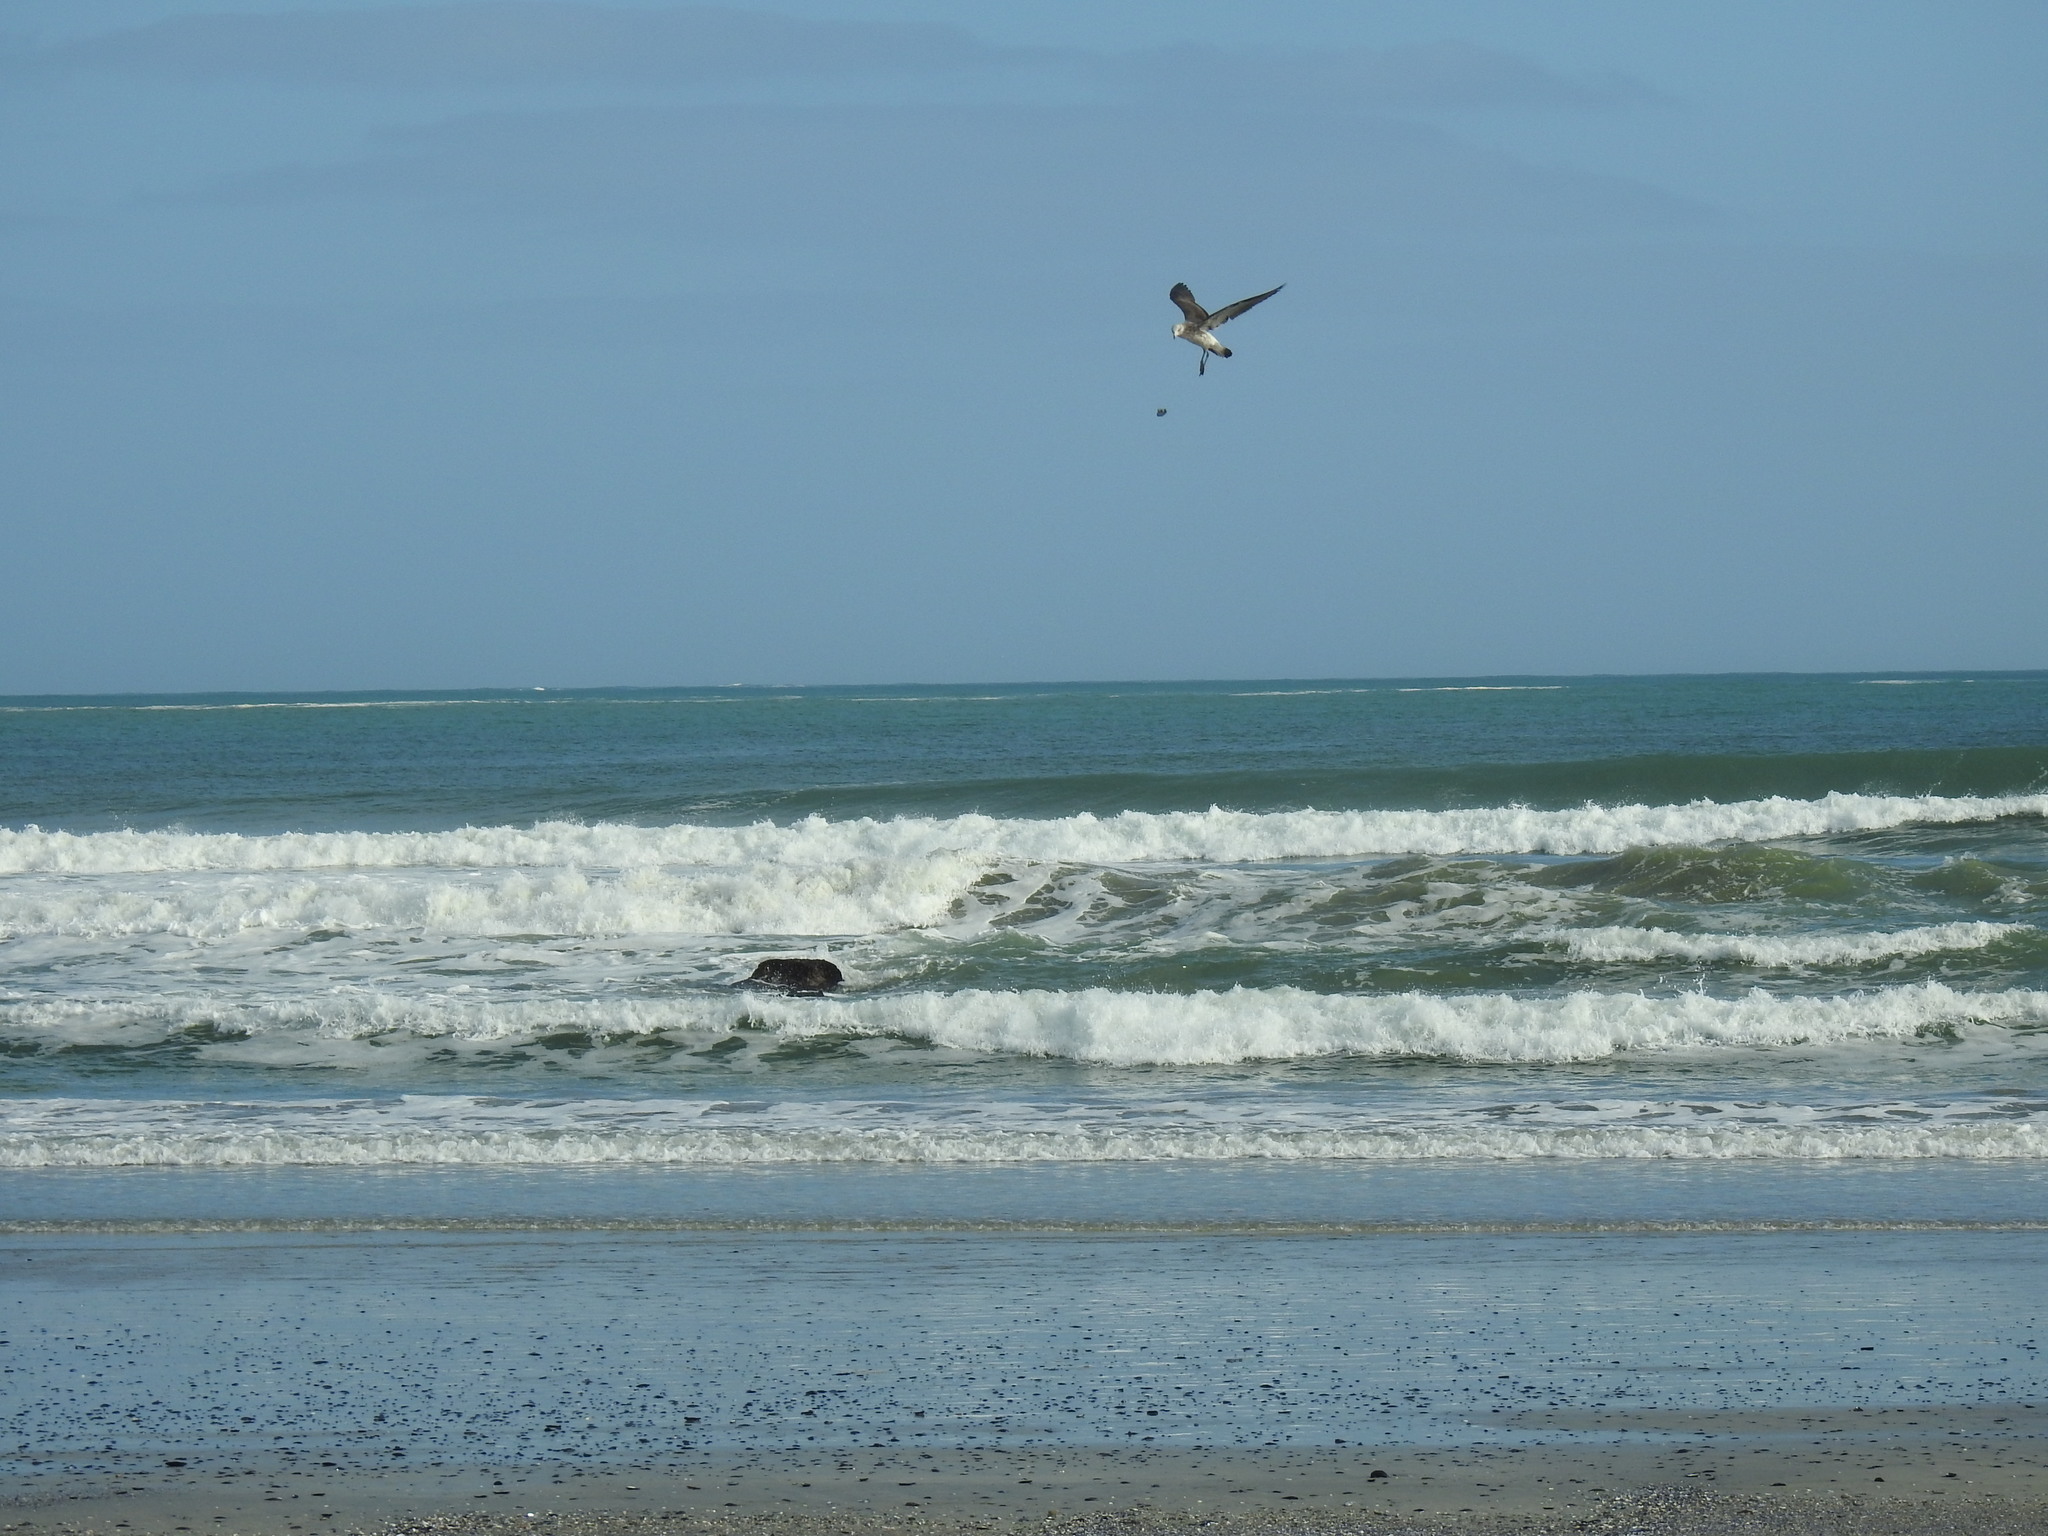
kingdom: Animalia
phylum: Chordata
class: Aves
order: Charadriiformes
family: Laridae
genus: Larus
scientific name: Larus dominicanus
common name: Kelp gull
